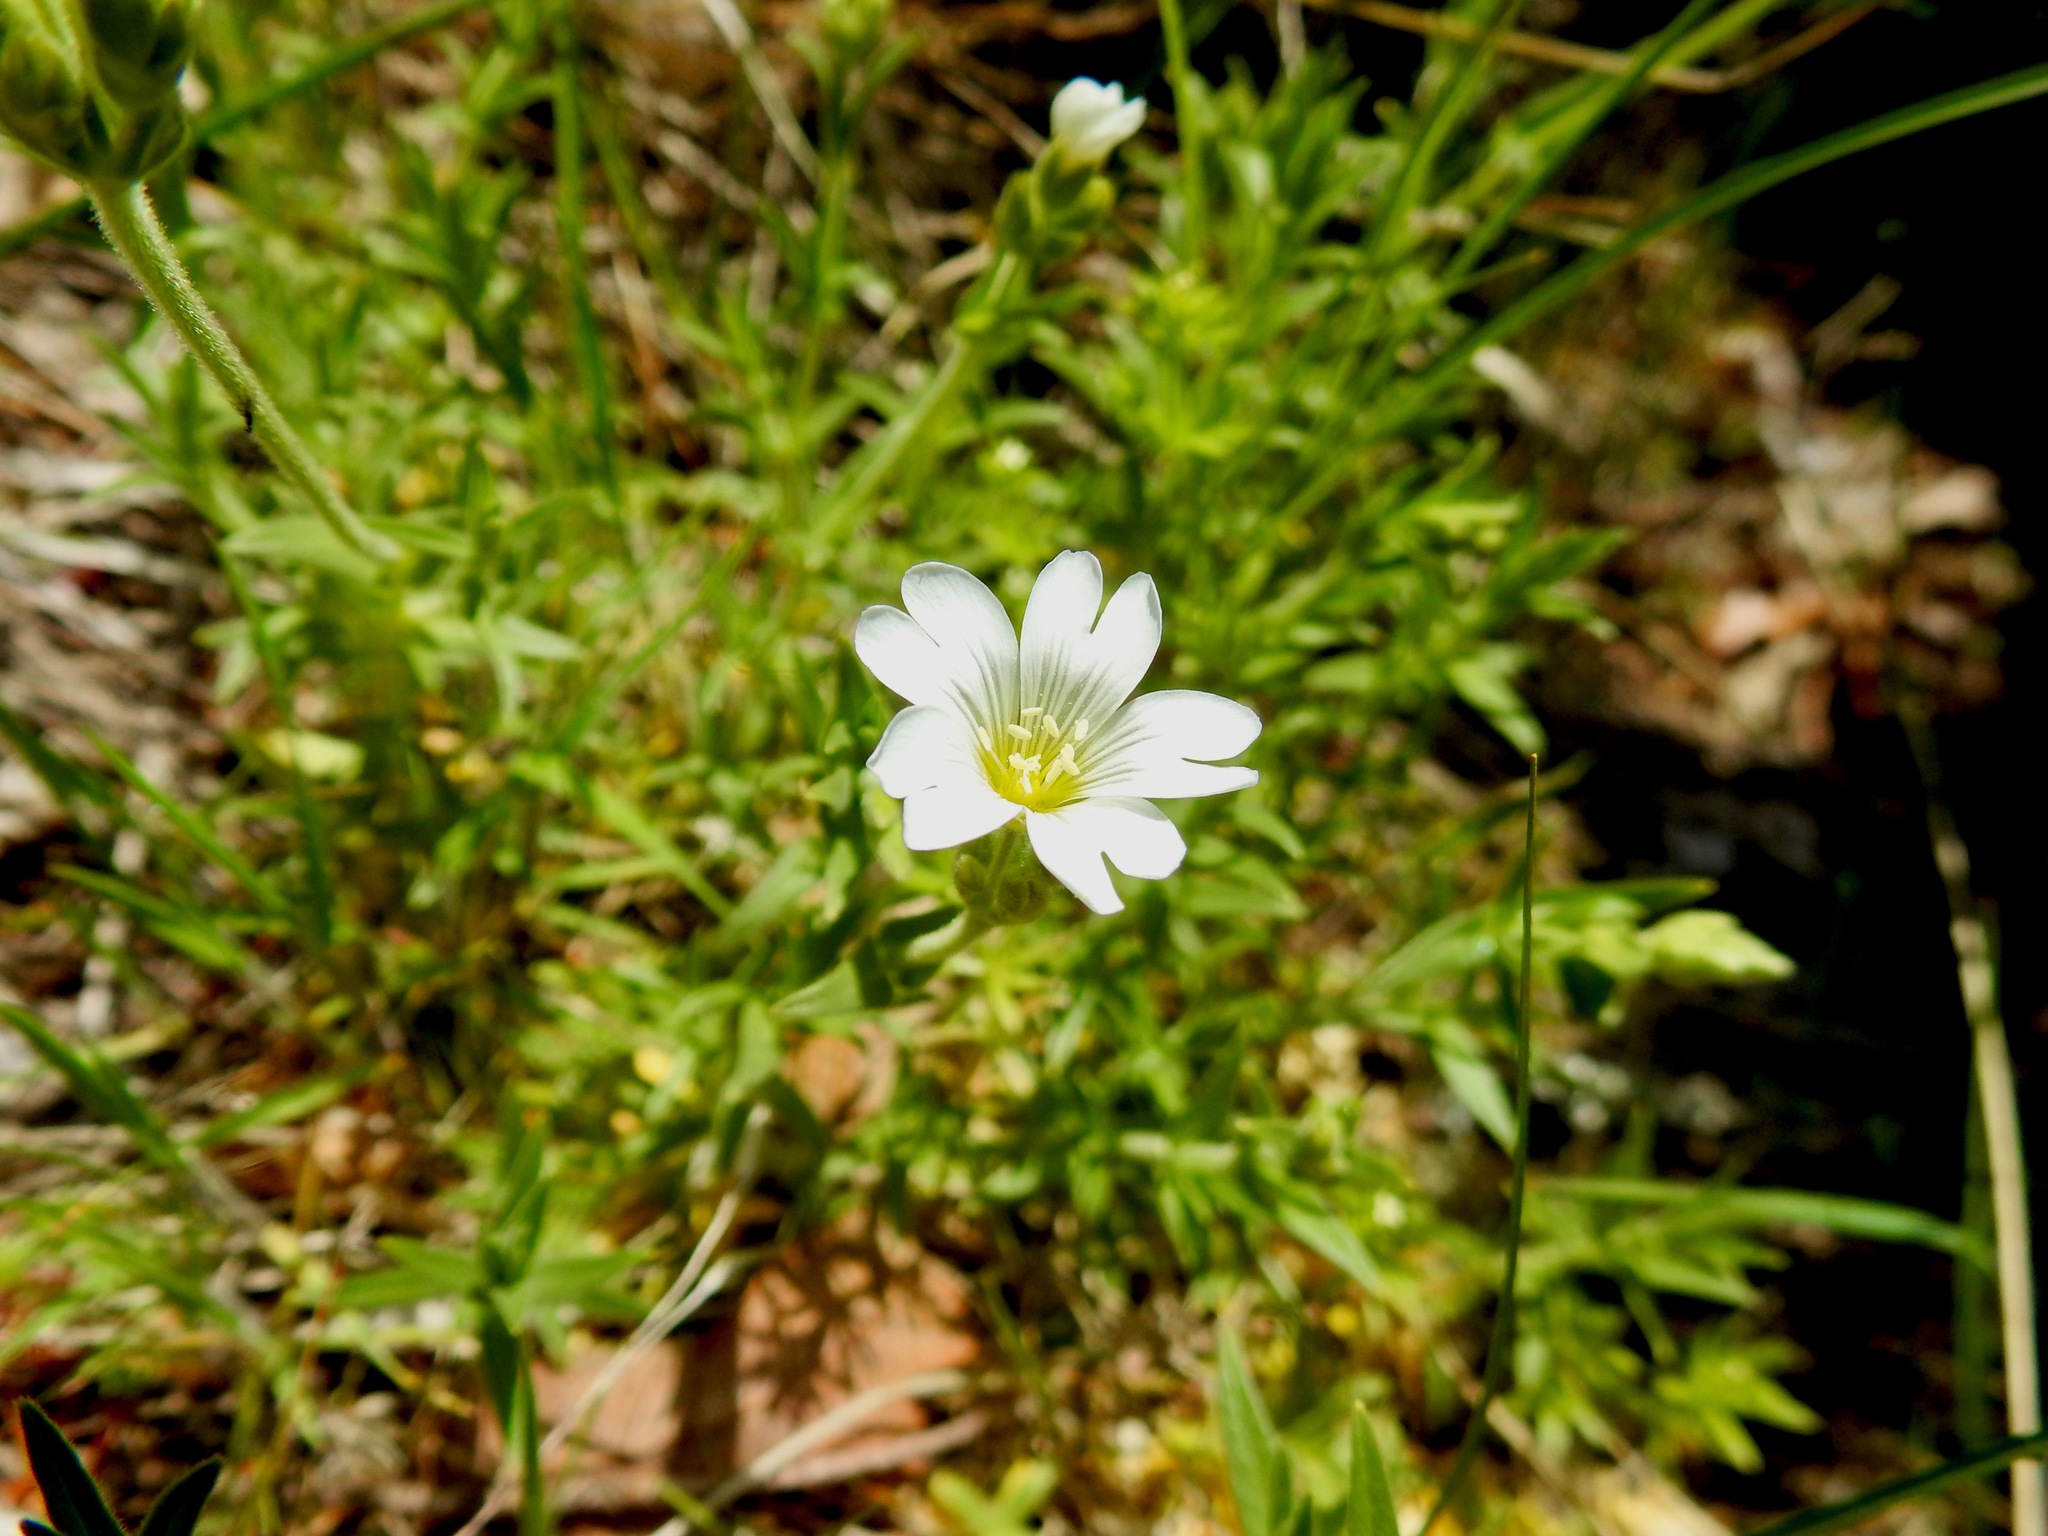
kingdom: Plantae
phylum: Tracheophyta
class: Magnoliopsida
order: Caryophyllales
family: Caryophyllaceae
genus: Cerastium
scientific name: Cerastium arvense
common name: Field mouse-ear
